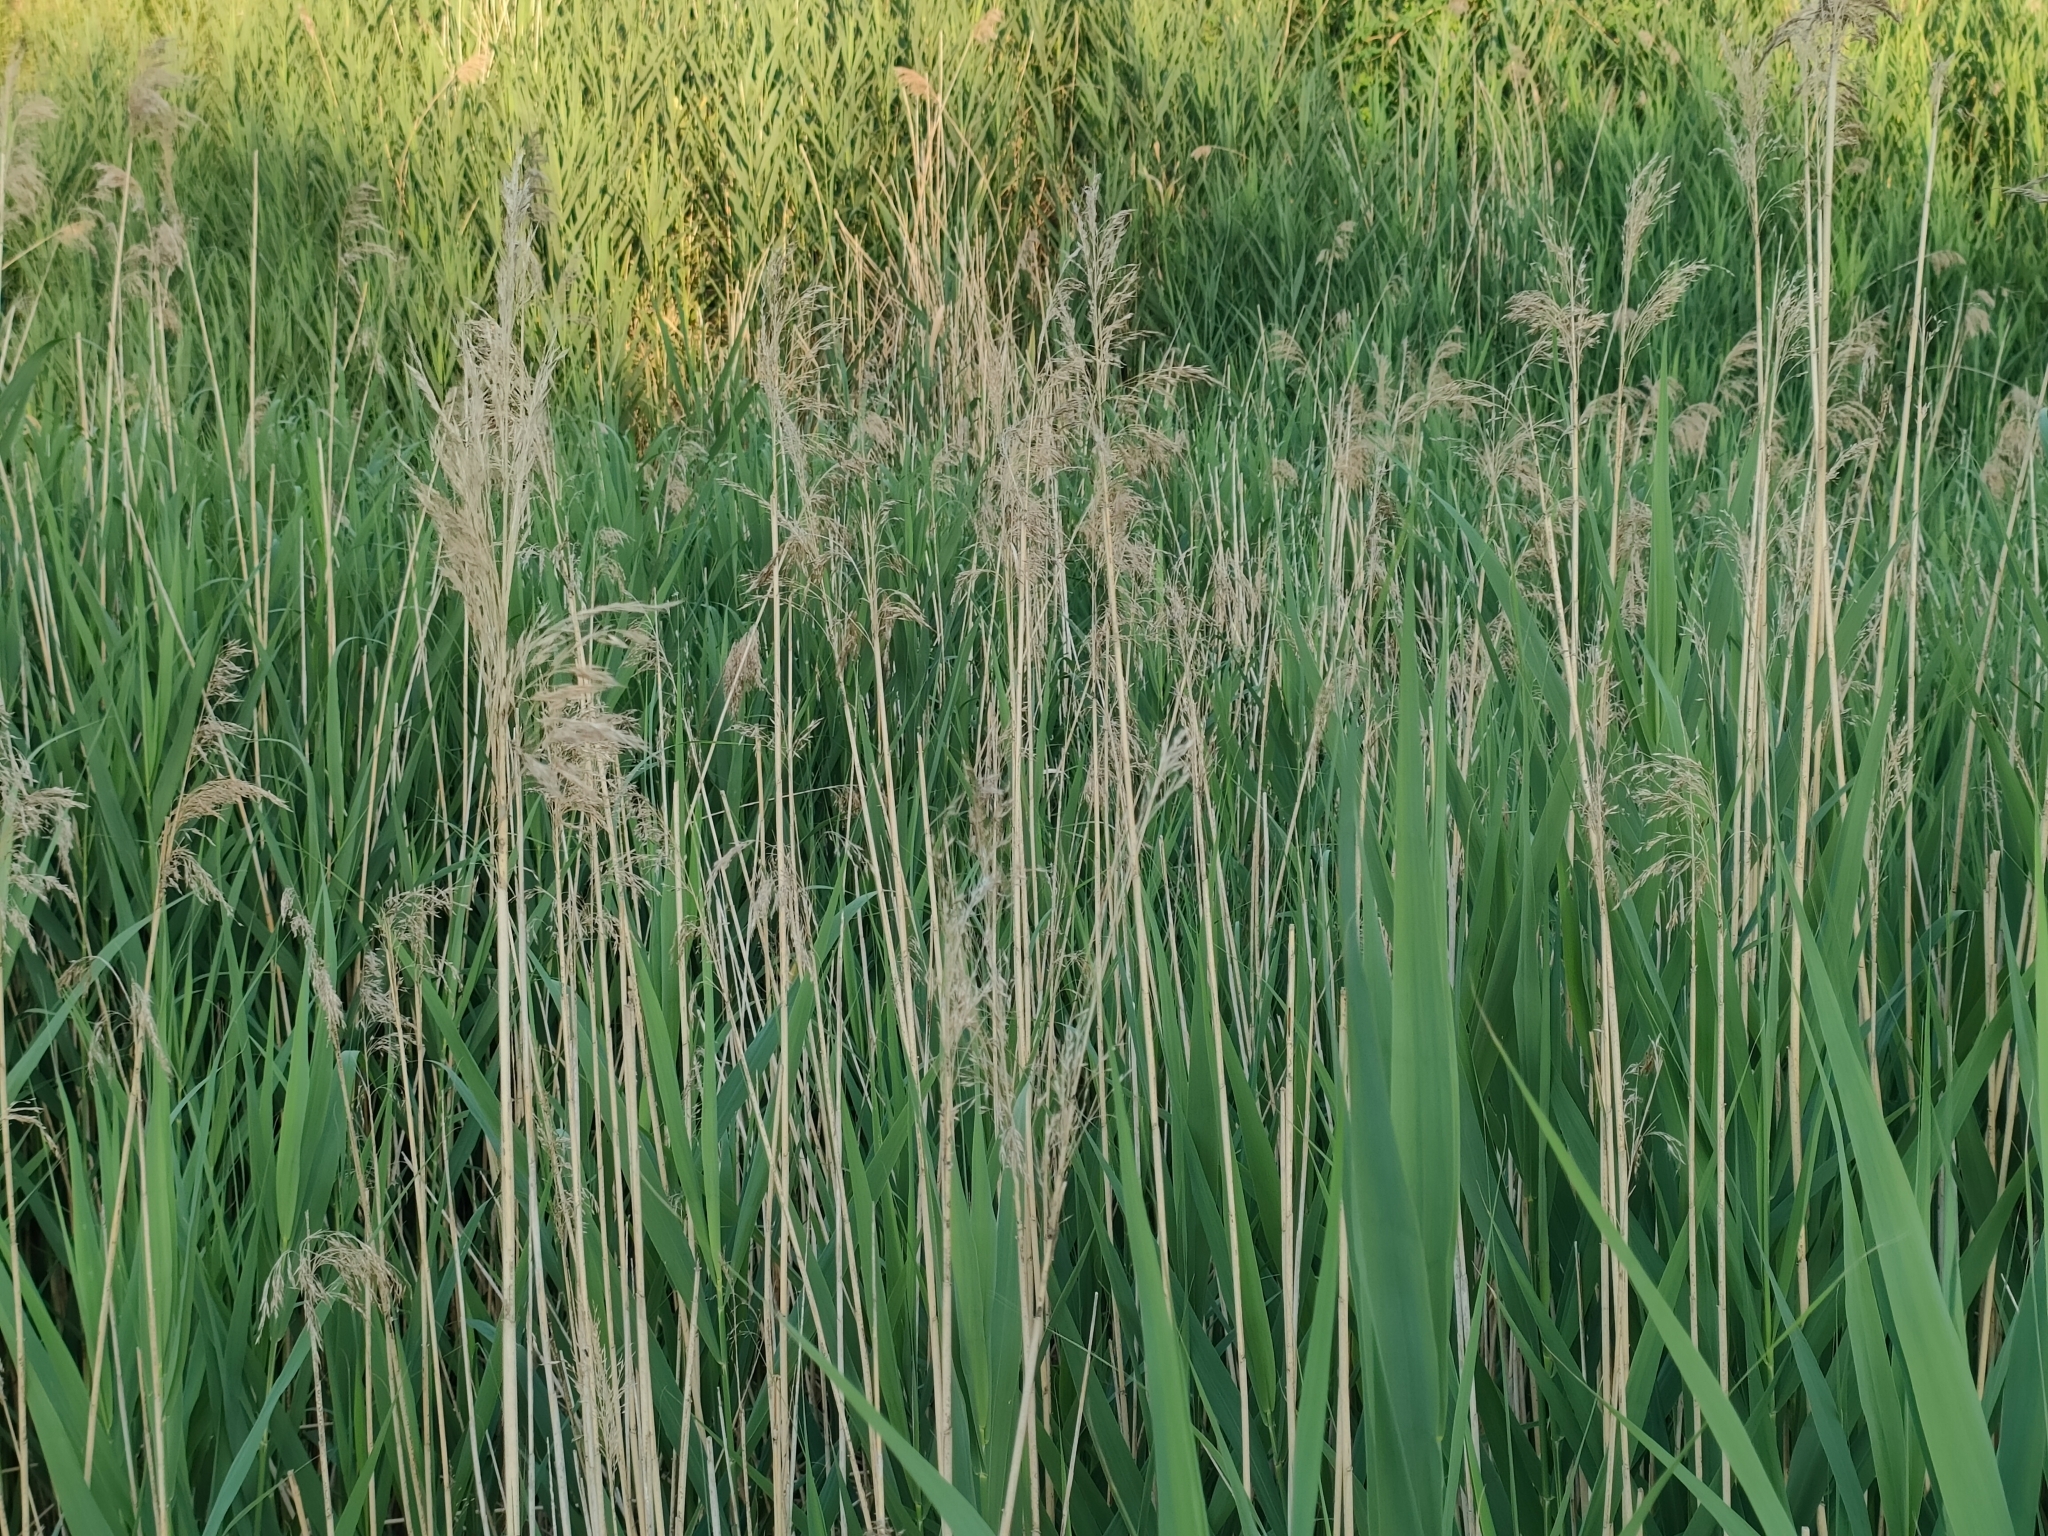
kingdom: Plantae
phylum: Tracheophyta
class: Liliopsida
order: Poales
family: Poaceae
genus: Phragmites
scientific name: Phragmites australis
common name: Common reed
